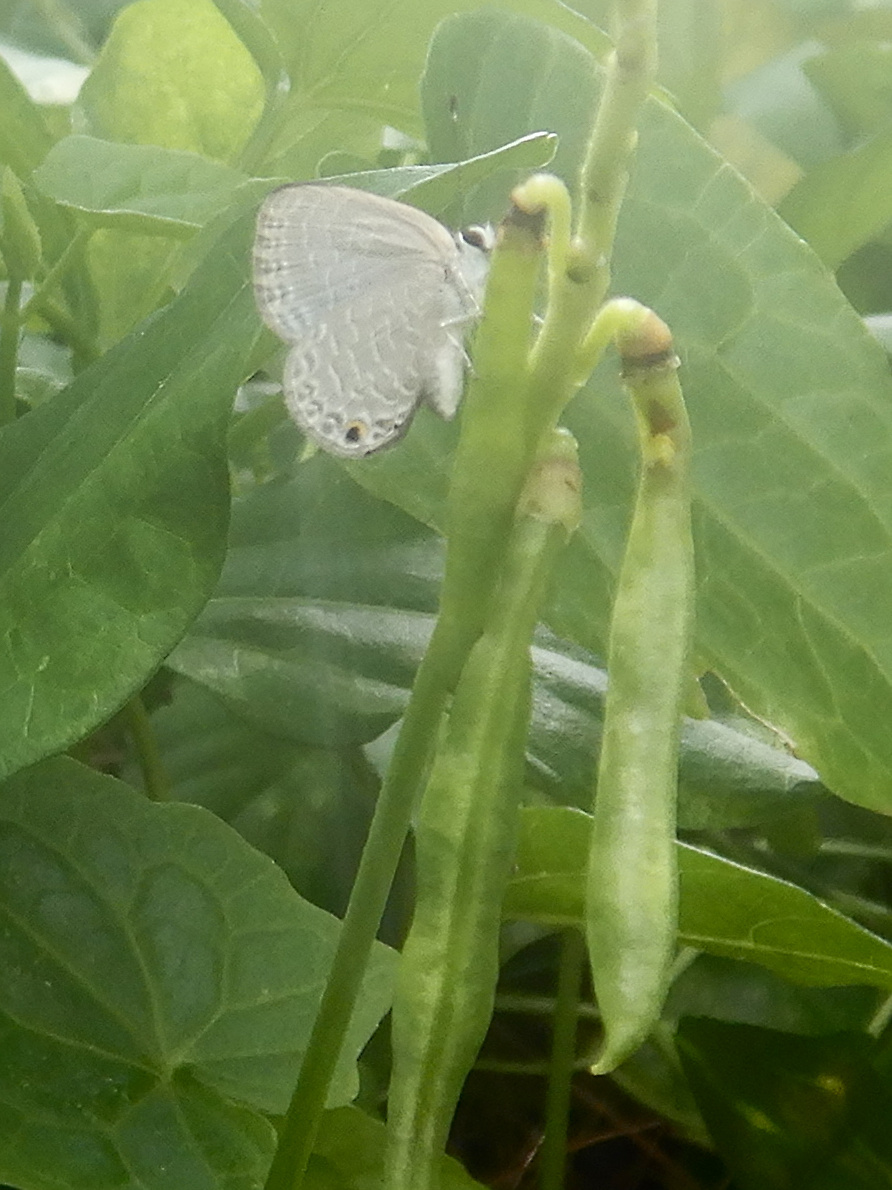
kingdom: Animalia
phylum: Arthropoda
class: Insecta
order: Lepidoptera
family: Lycaenidae
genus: Jamides
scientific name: Jamides walkeri
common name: Cook islands blue
